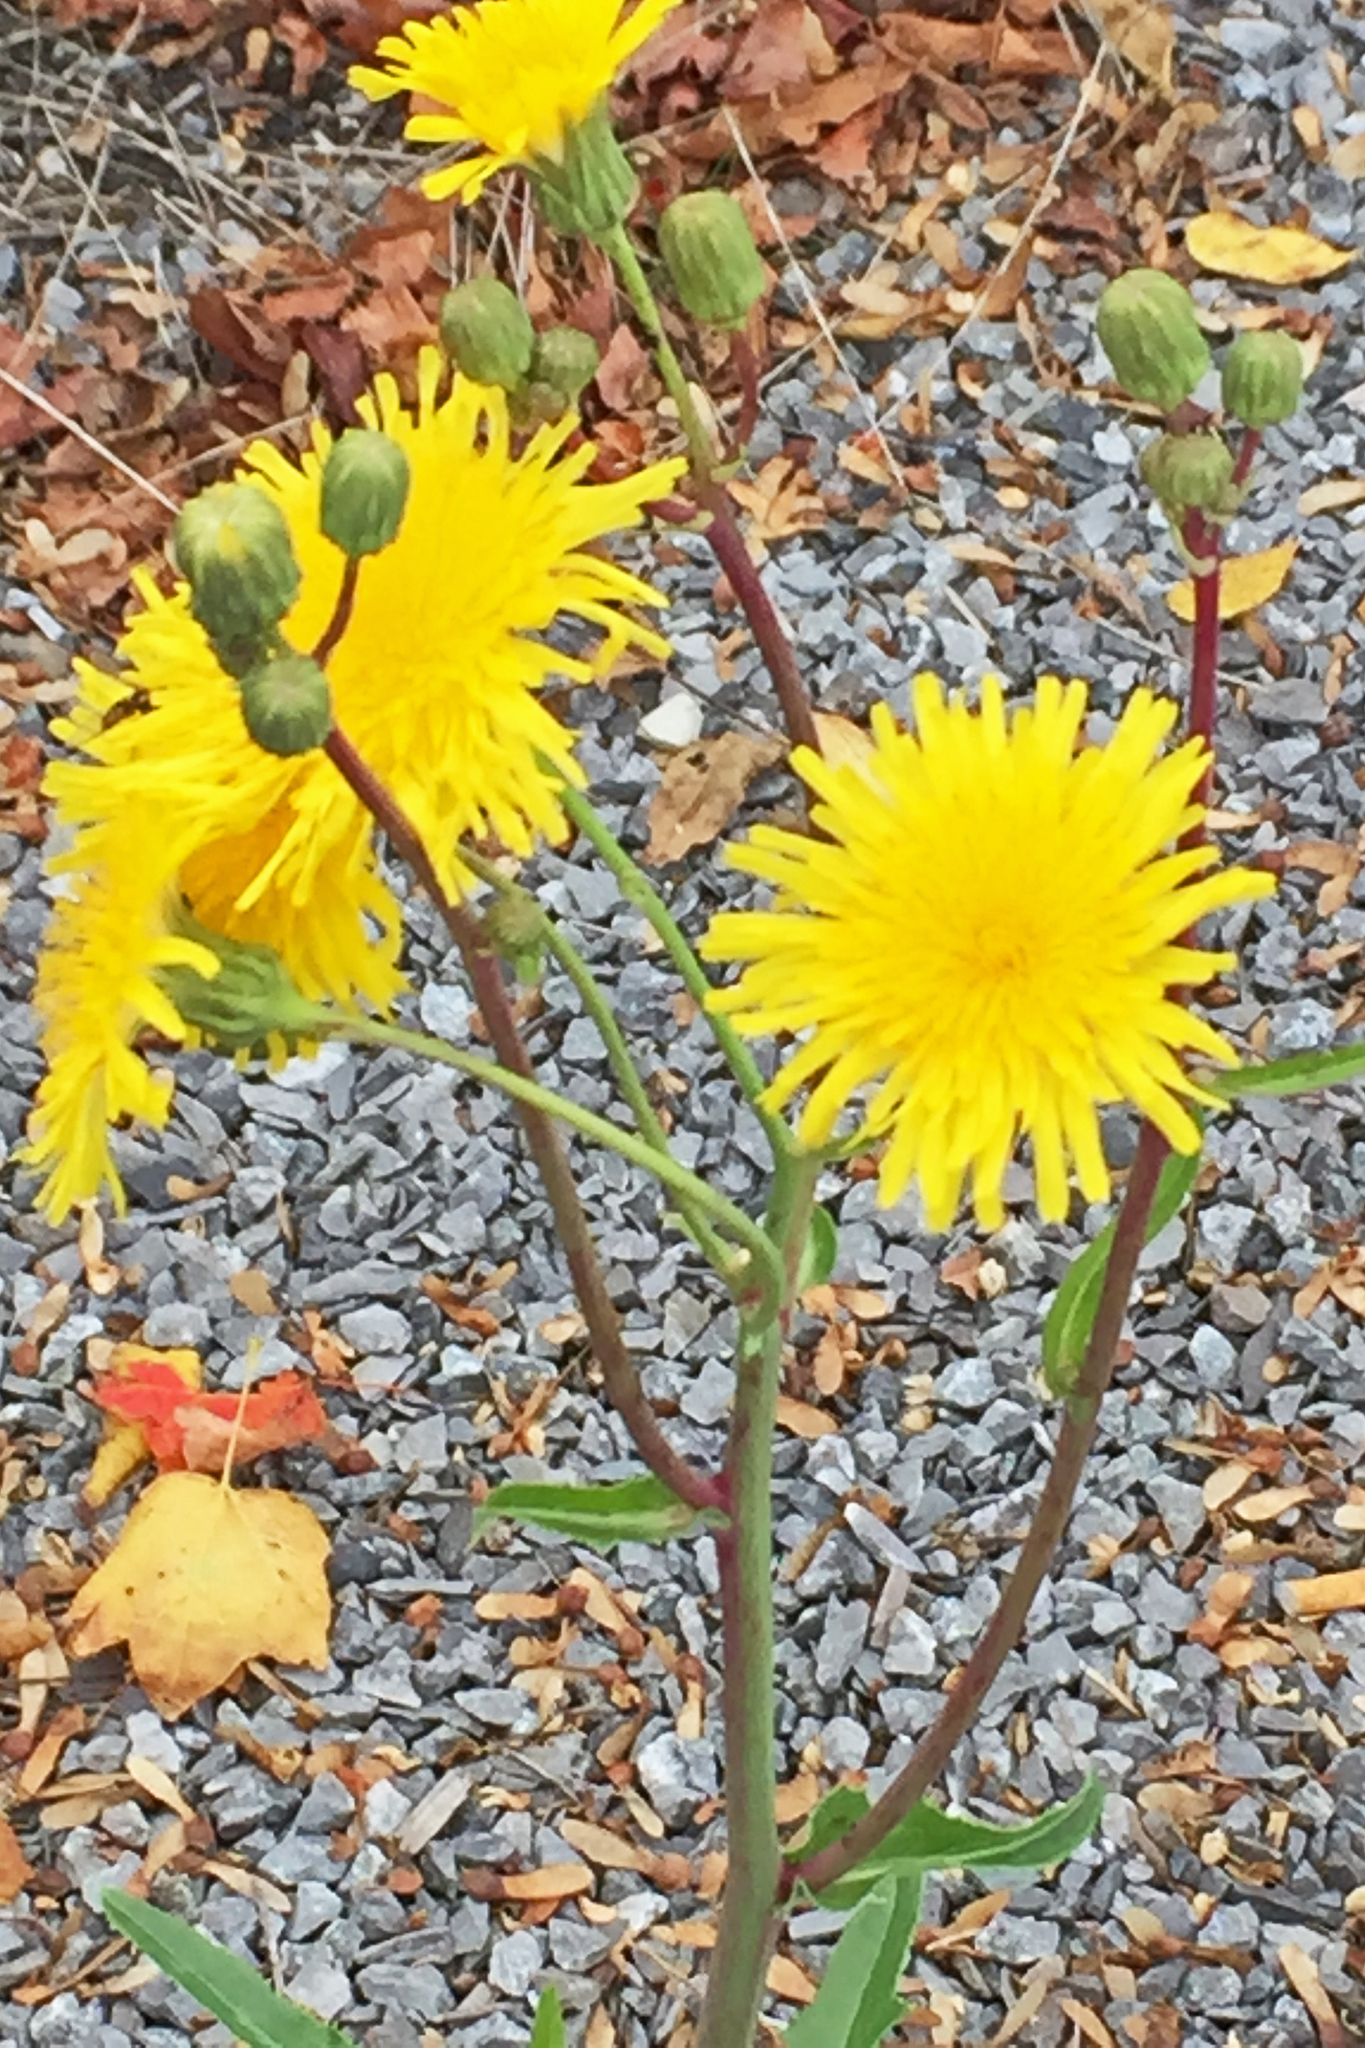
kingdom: Plantae
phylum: Tracheophyta
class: Magnoliopsida
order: Asterales
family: Asteraceae
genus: Crepis
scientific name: Crepis capillaris
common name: Smooth hawksbeard
